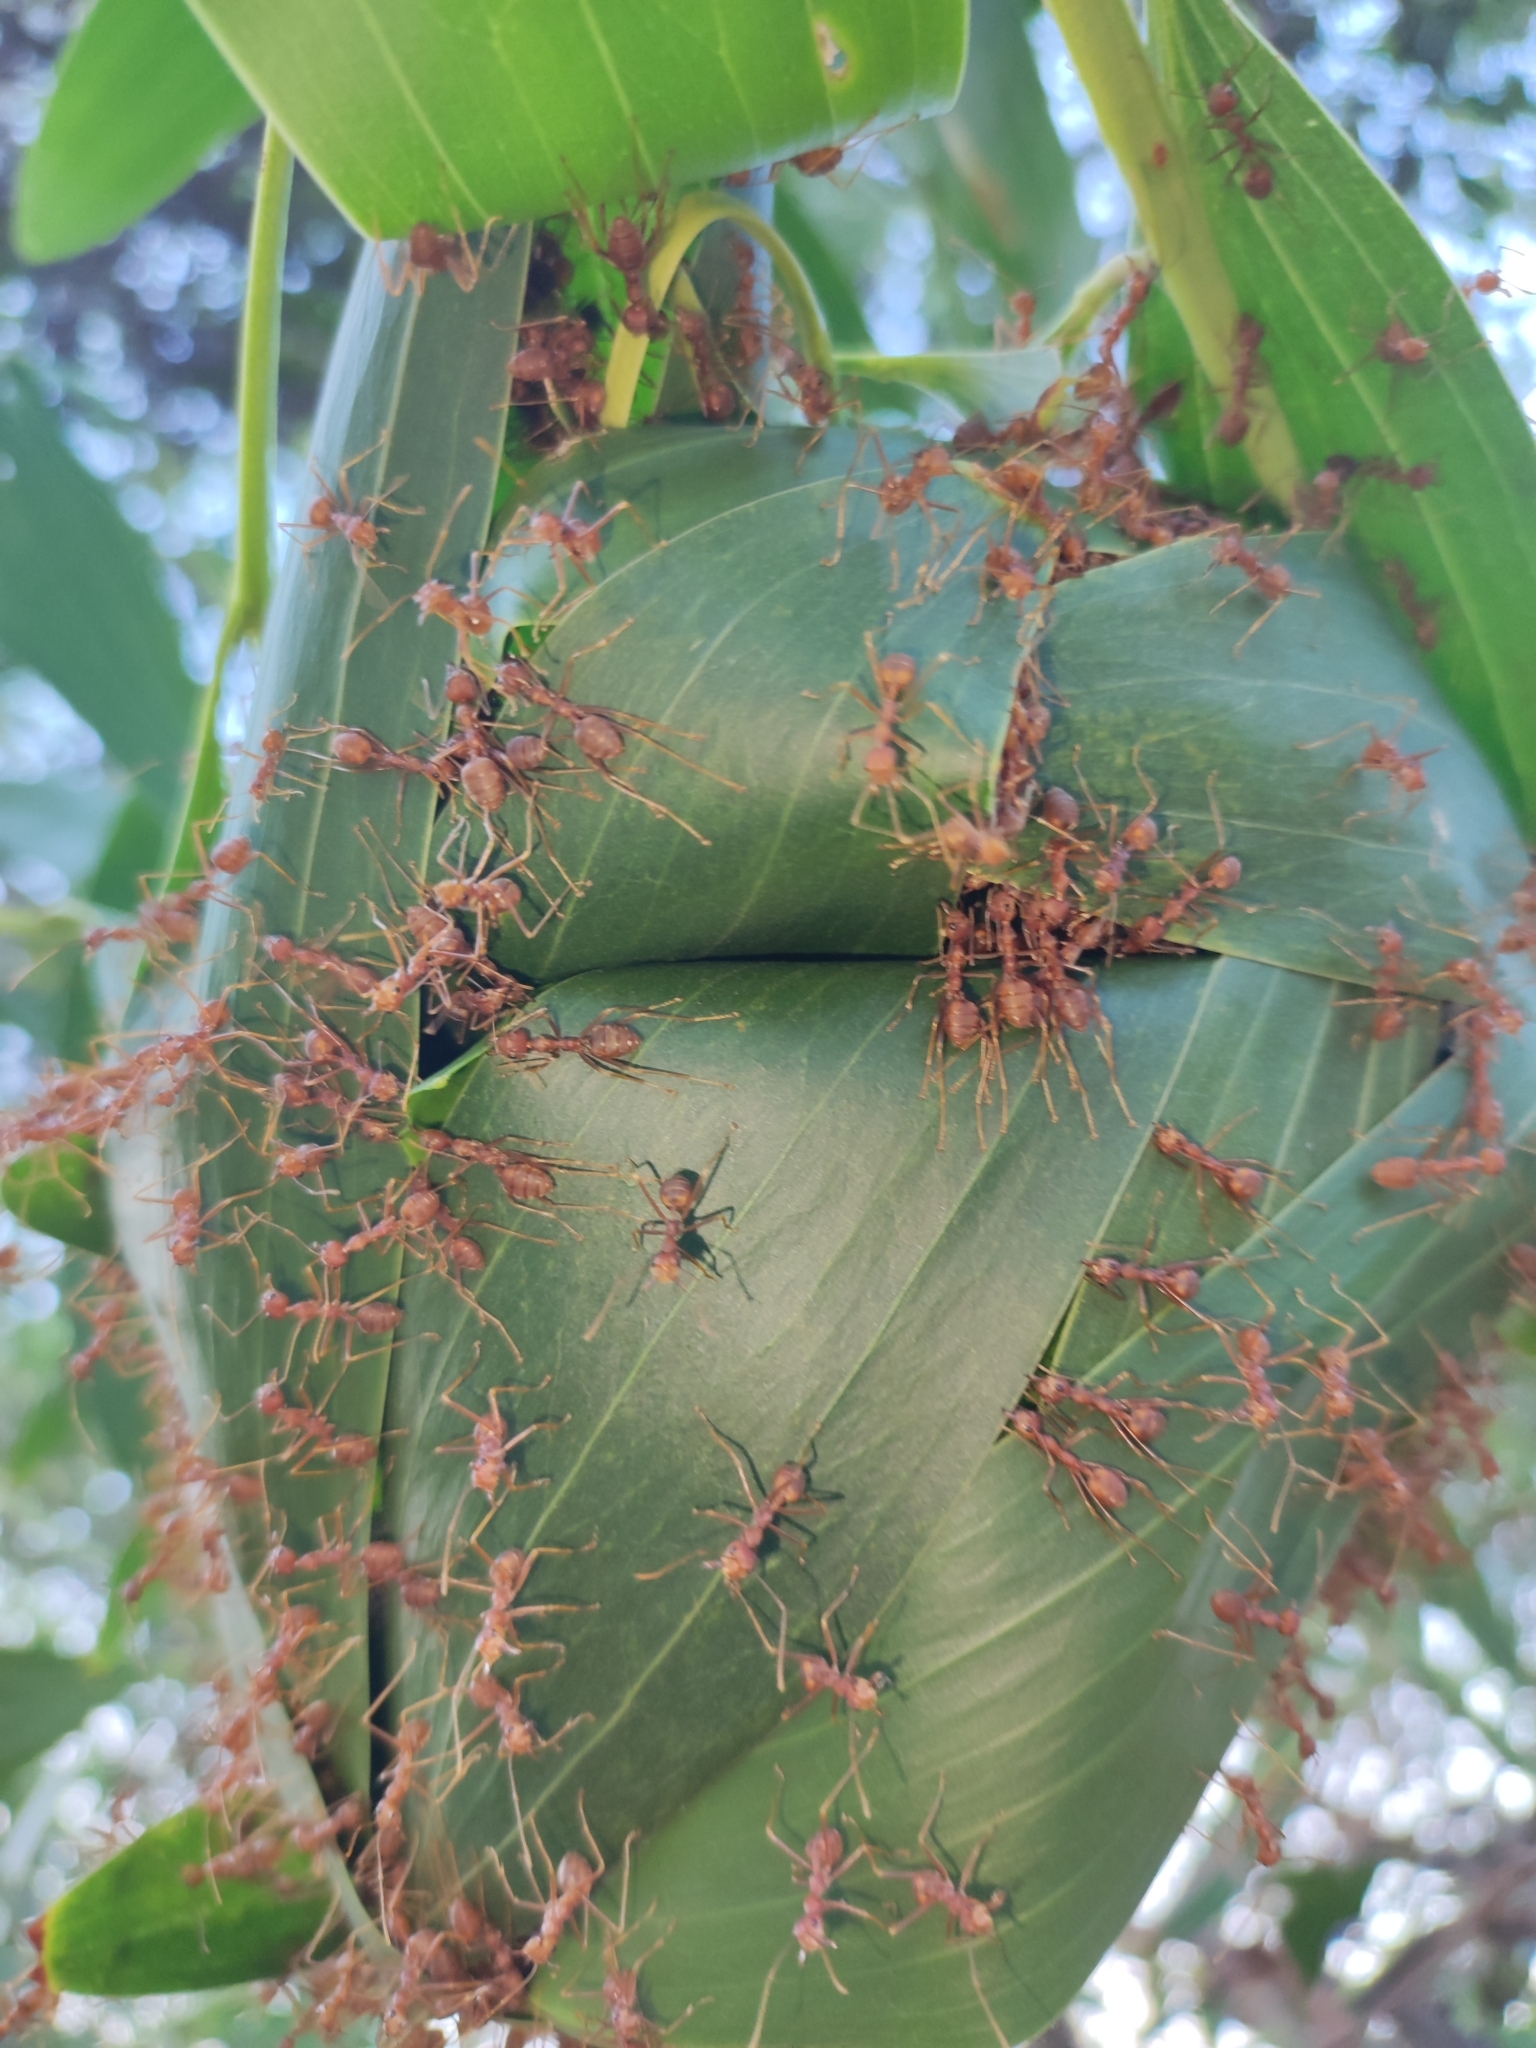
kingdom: Animalia
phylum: Arthropoda
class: Insecta
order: Hymenoptera
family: Formicidae
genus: Oecophylla
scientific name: Oecophylla smaragdina
